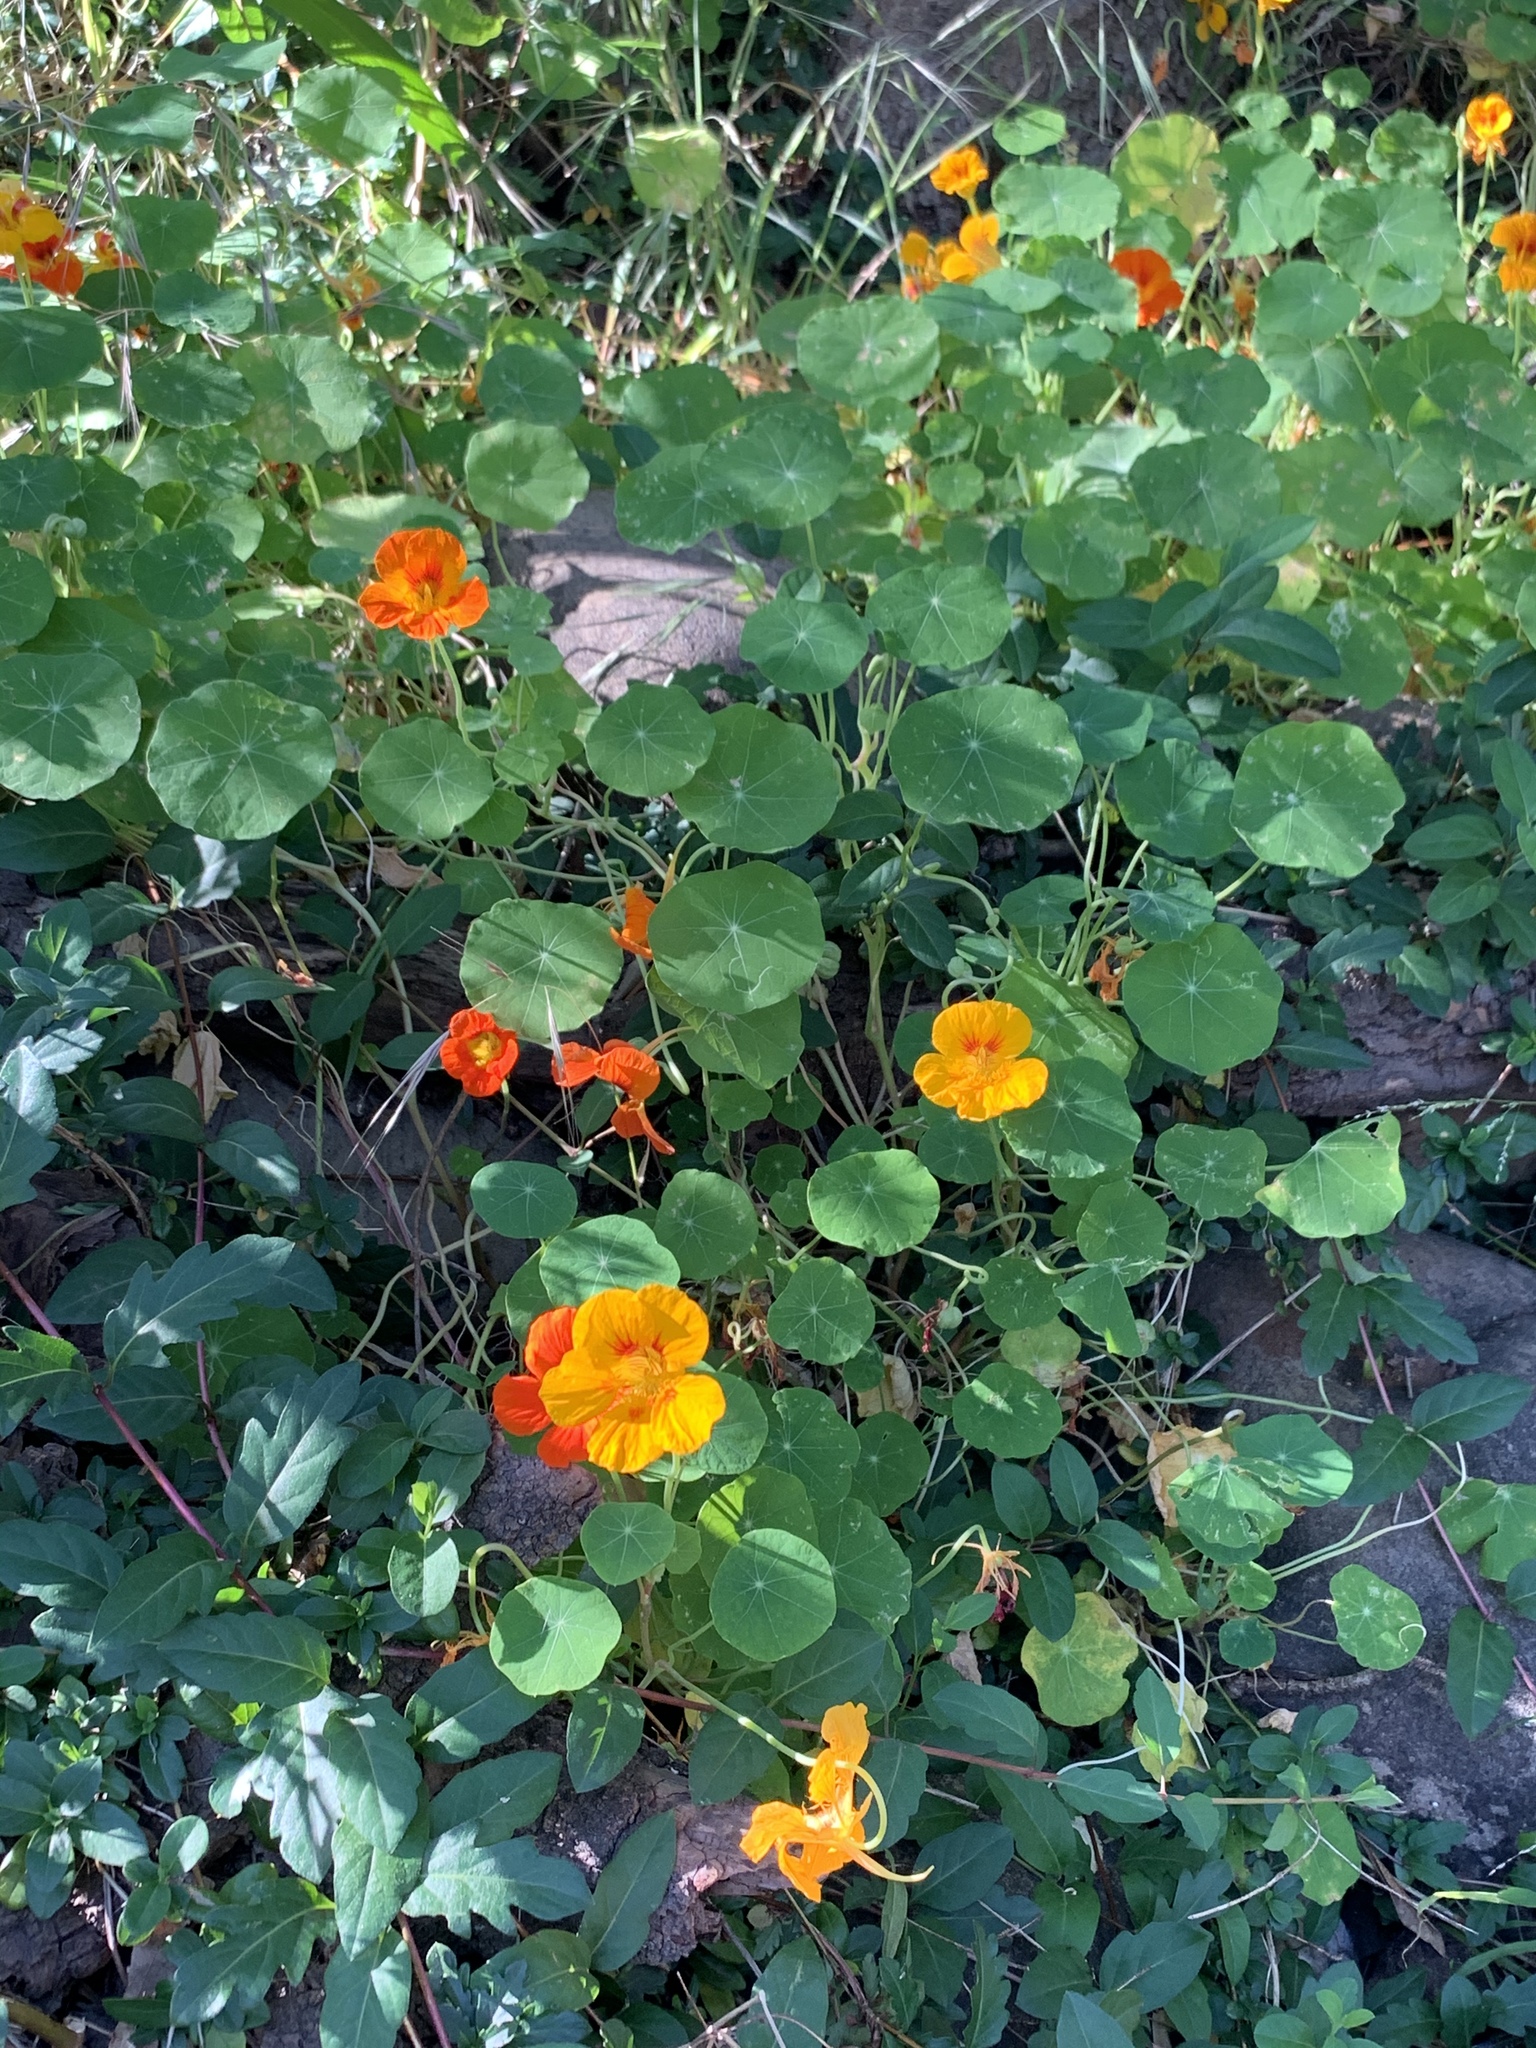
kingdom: Plantae
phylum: Tracheophyta
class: Magnoliopsida
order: Brassicales
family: Tropaeolaceae
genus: Tropaeolum
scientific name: Tropaeolum majus
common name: Nasturtium
